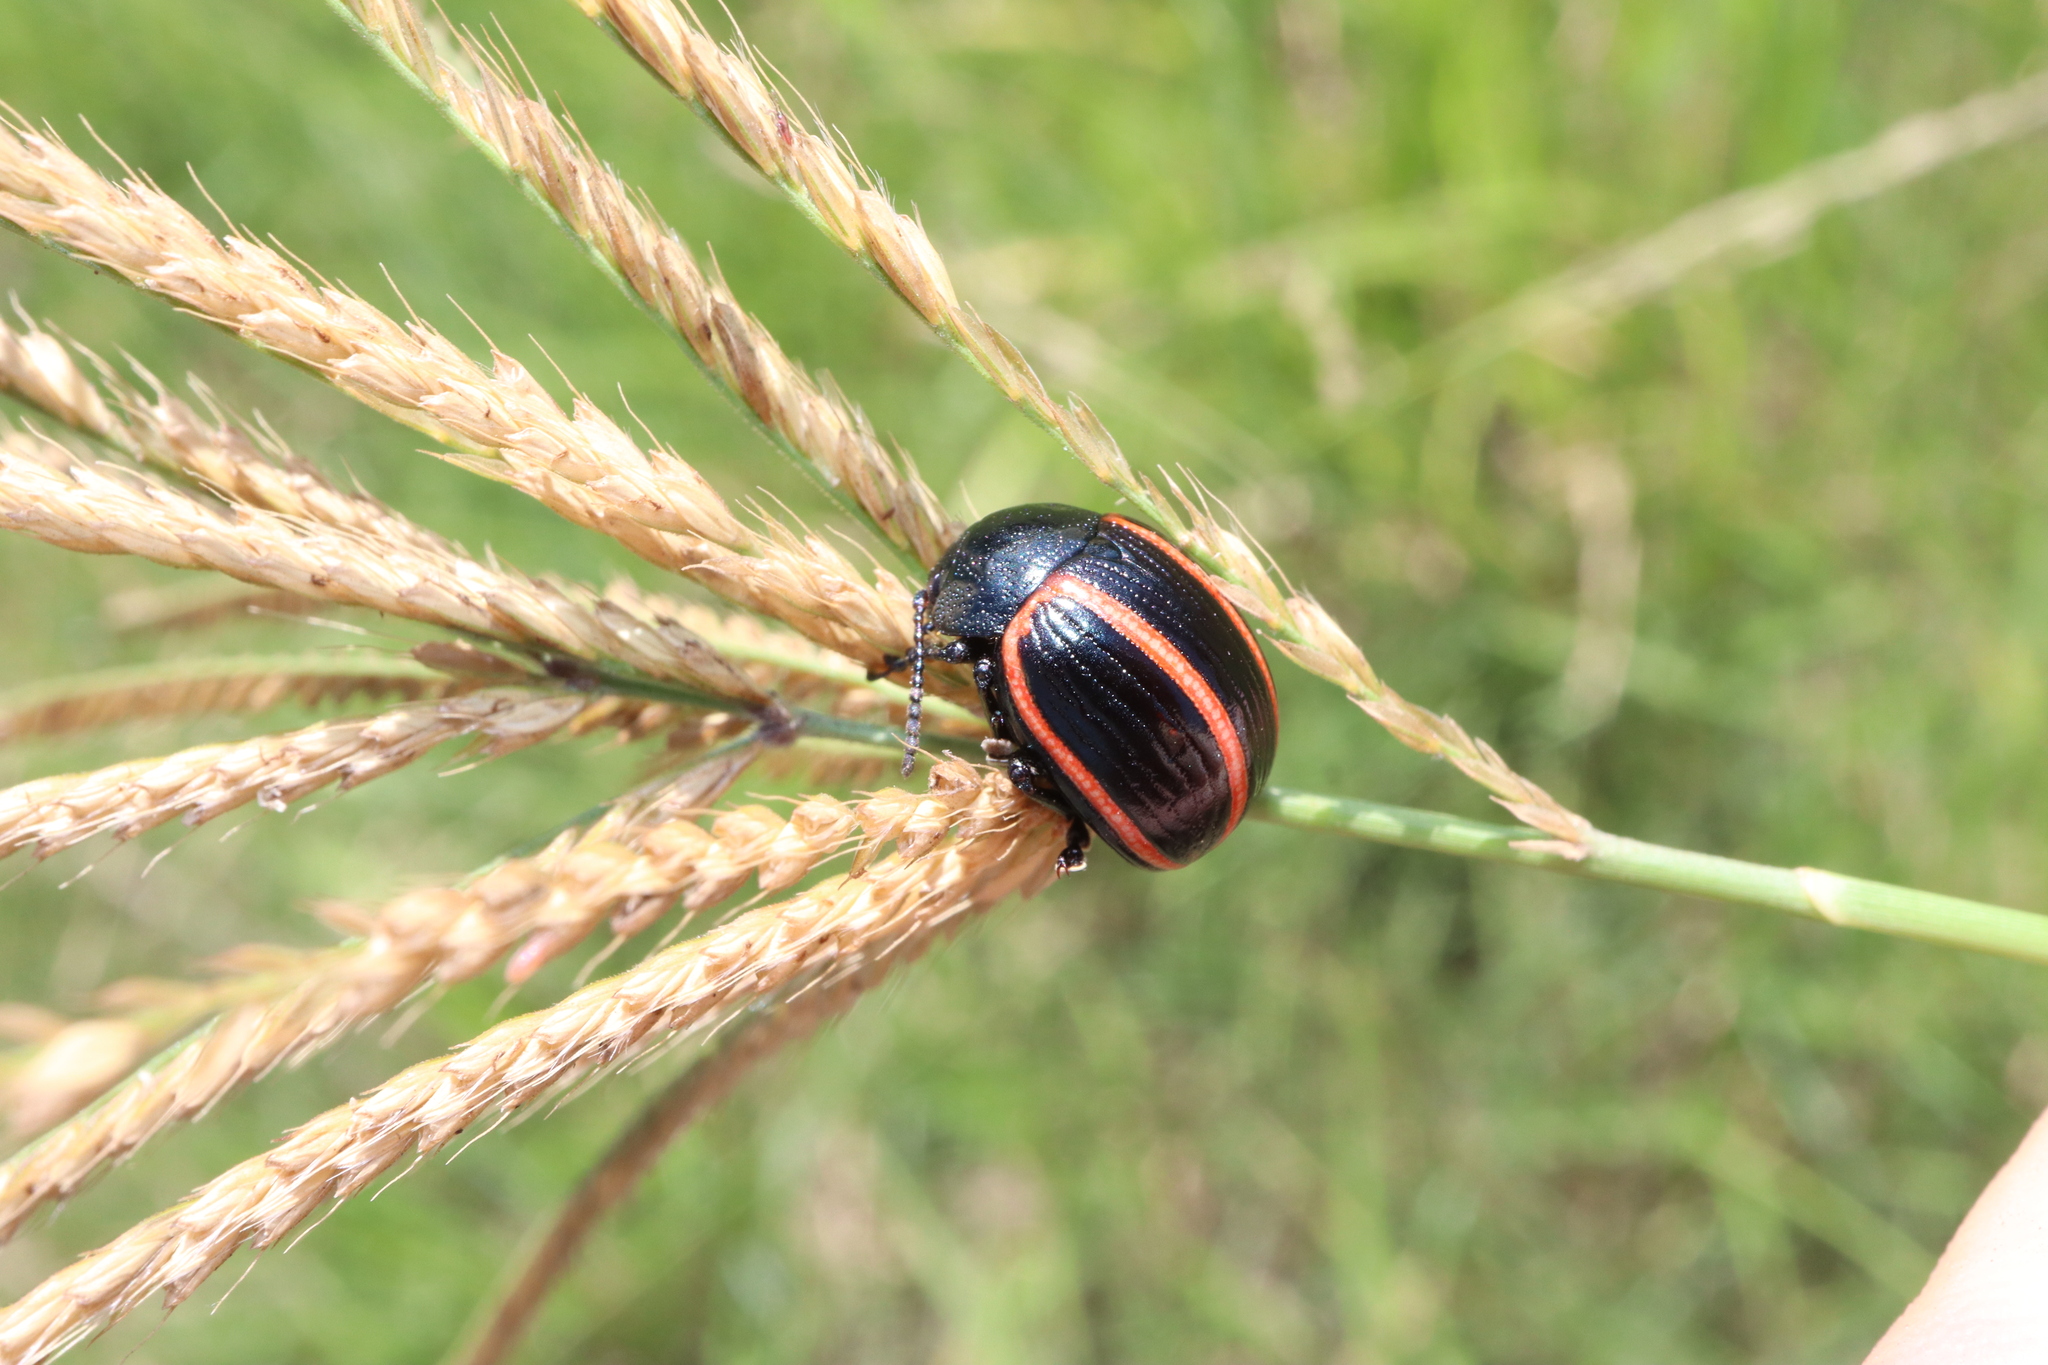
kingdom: Animalia
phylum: Arthropoda
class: Insecta
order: Coleoptera
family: Chrysomelidae
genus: Deuterocampta
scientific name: Deuterocampta
